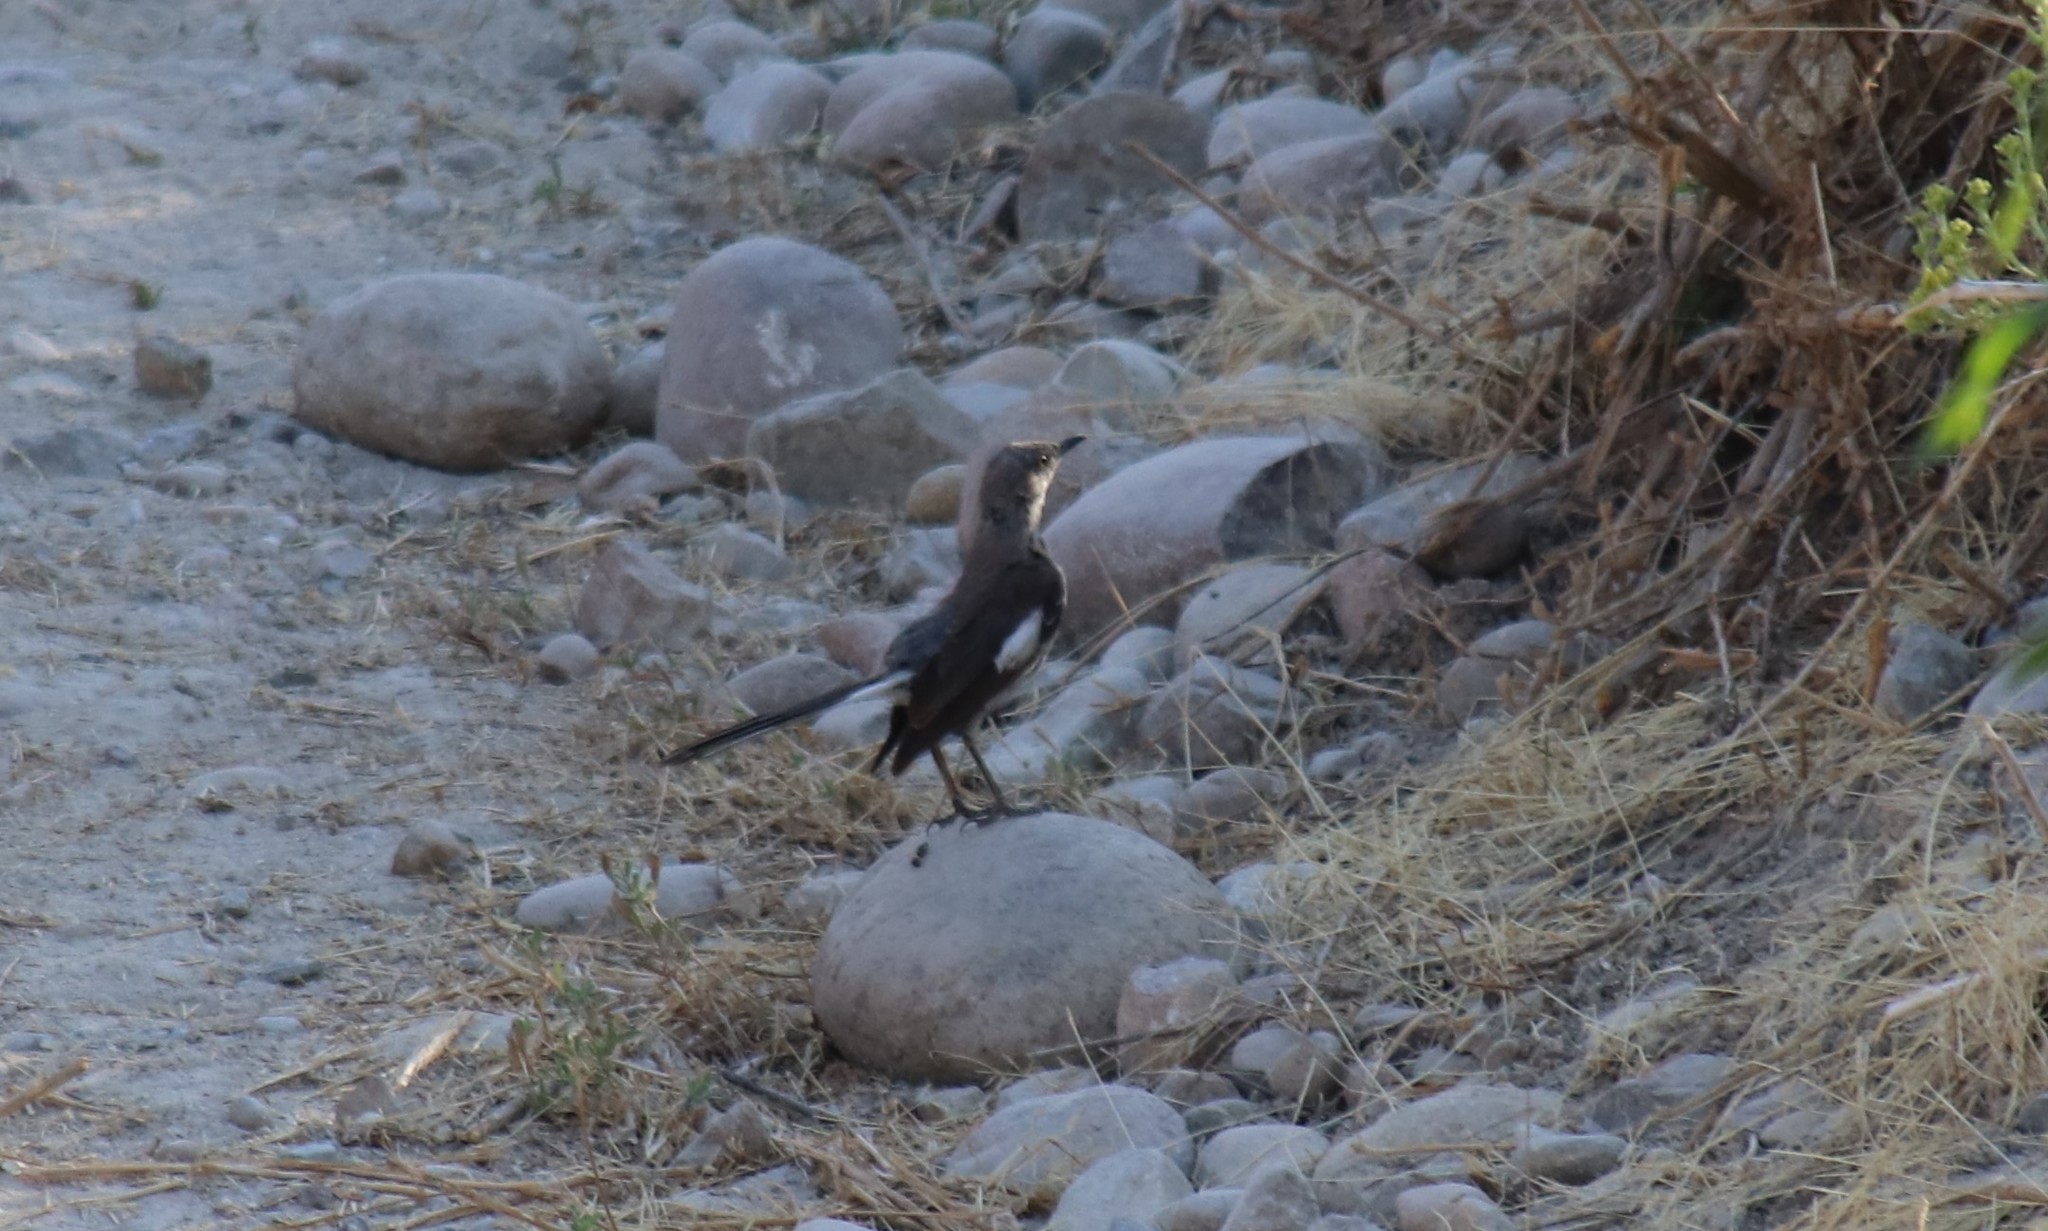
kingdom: Animalia
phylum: Chordata
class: Aves
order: Passeriformes
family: Mimidae
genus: Mimus
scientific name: Mimus polyglottos
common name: Northern mockingbird
